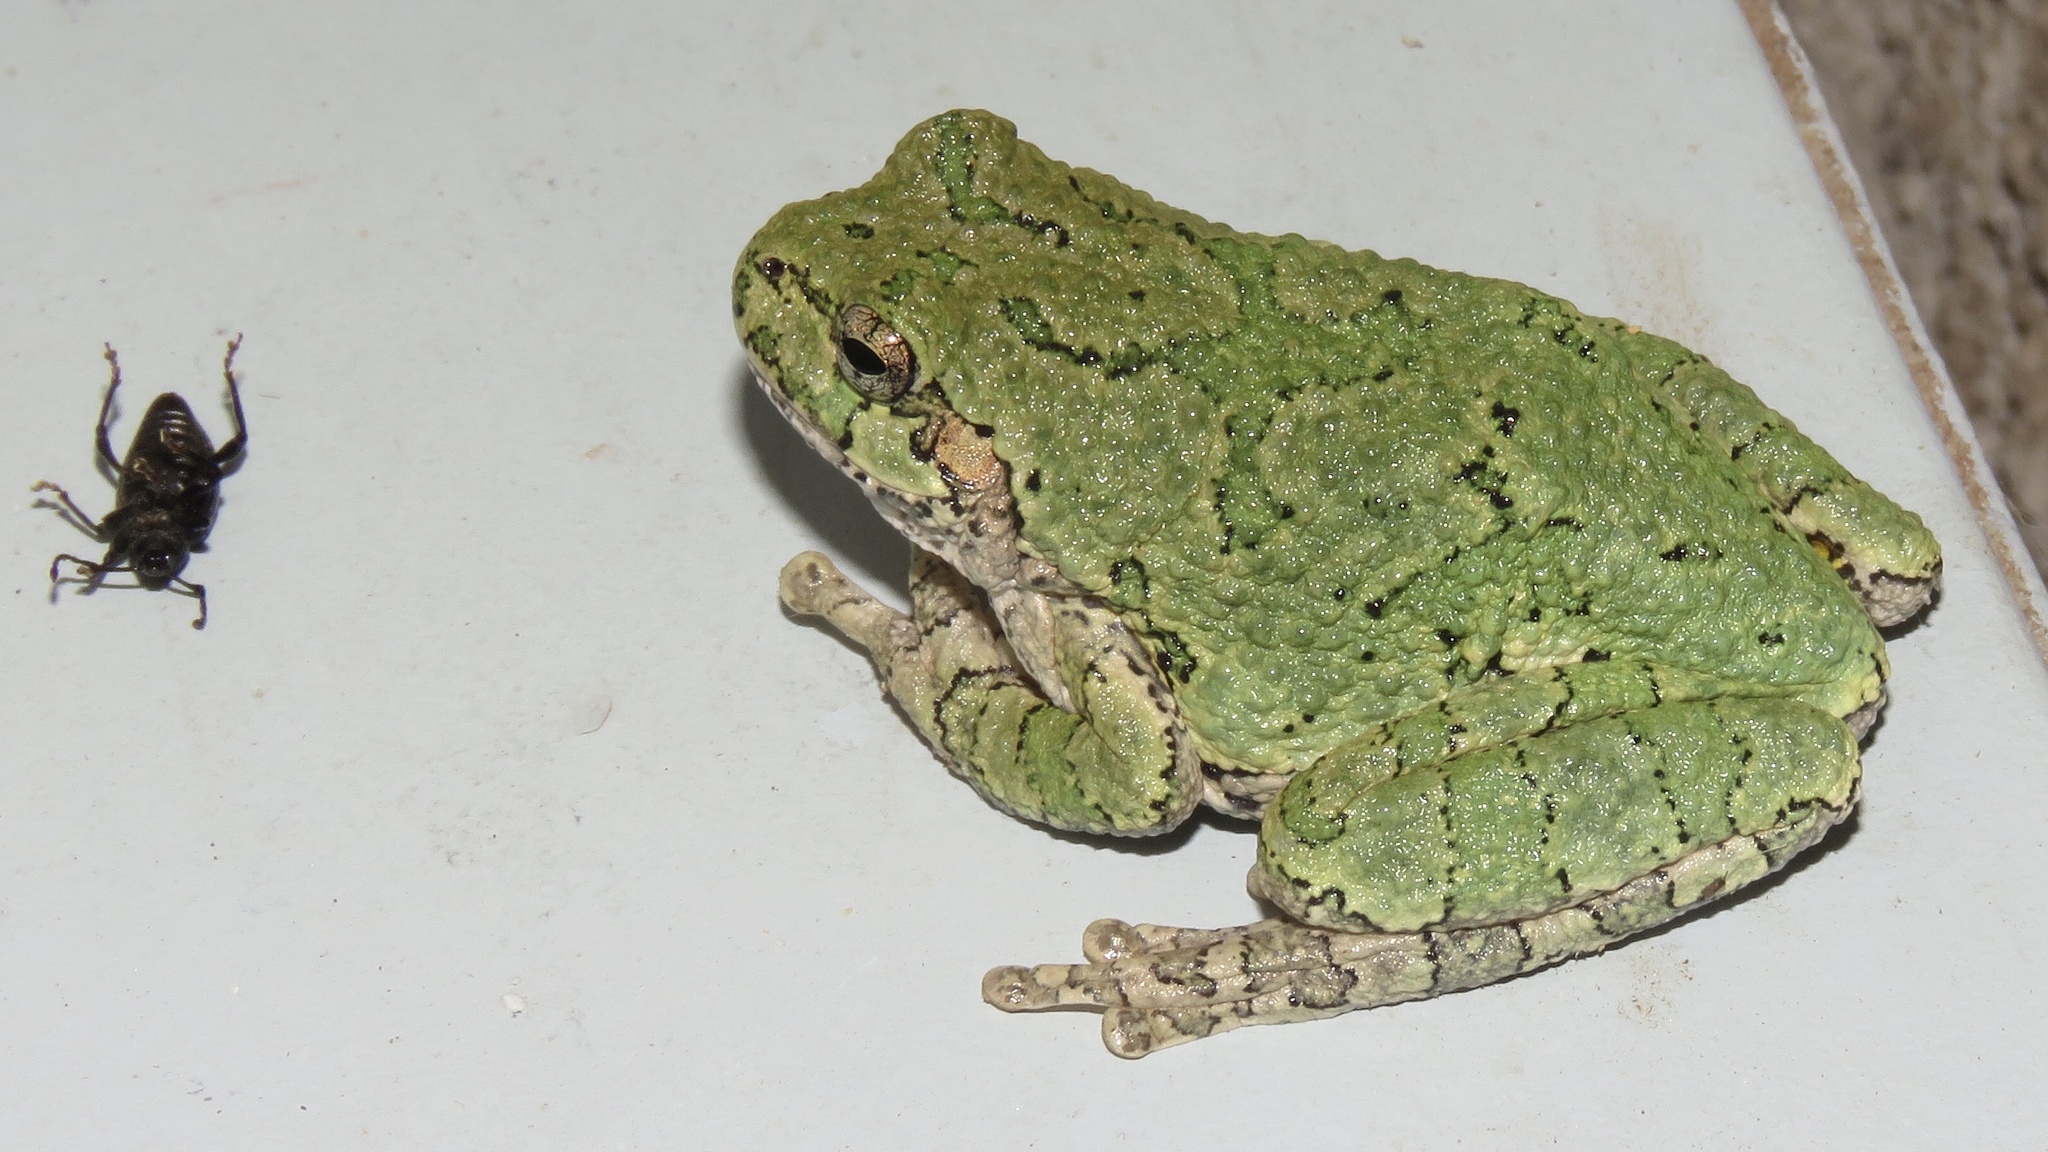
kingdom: Animalia
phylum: Chordata
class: Amphibia
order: Anura
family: Hylidae
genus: Dryophytes
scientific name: Dryophytes versicolor
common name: Gray treefrog
